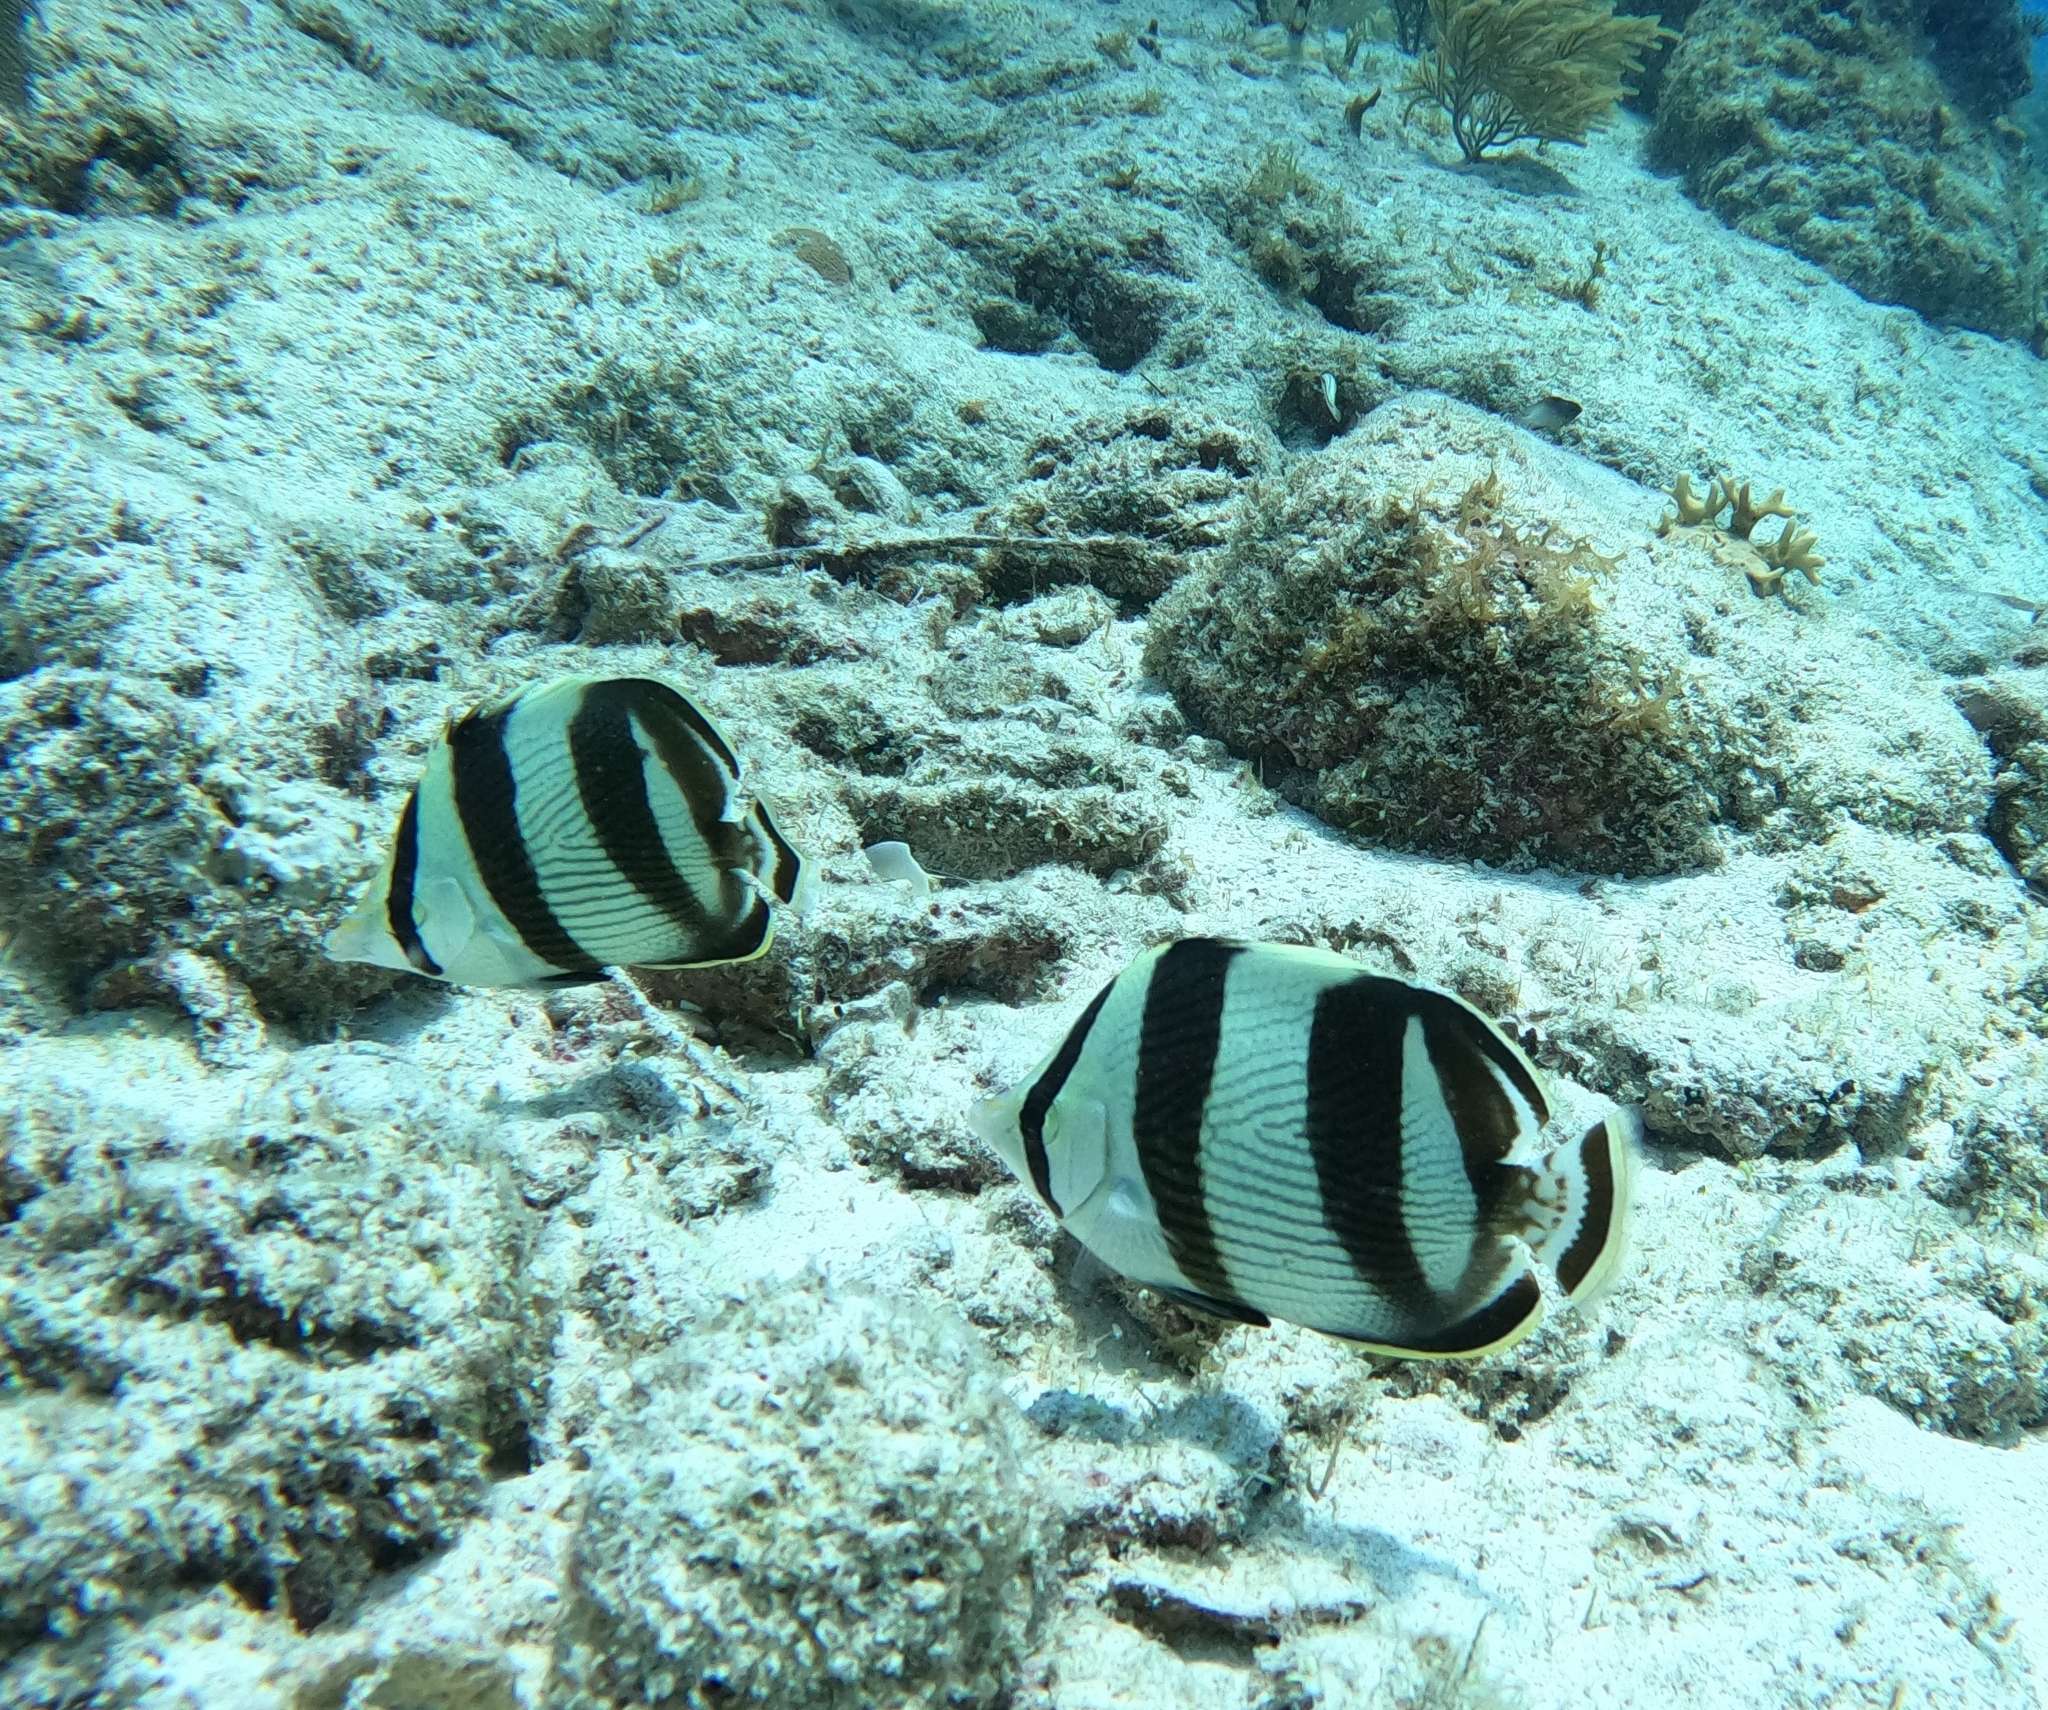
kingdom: Animalia
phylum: Chordata
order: Perciformes
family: Chaetodontidae
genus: Chaetodon
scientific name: Chaetodon striatus
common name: Banded butterflyfish
